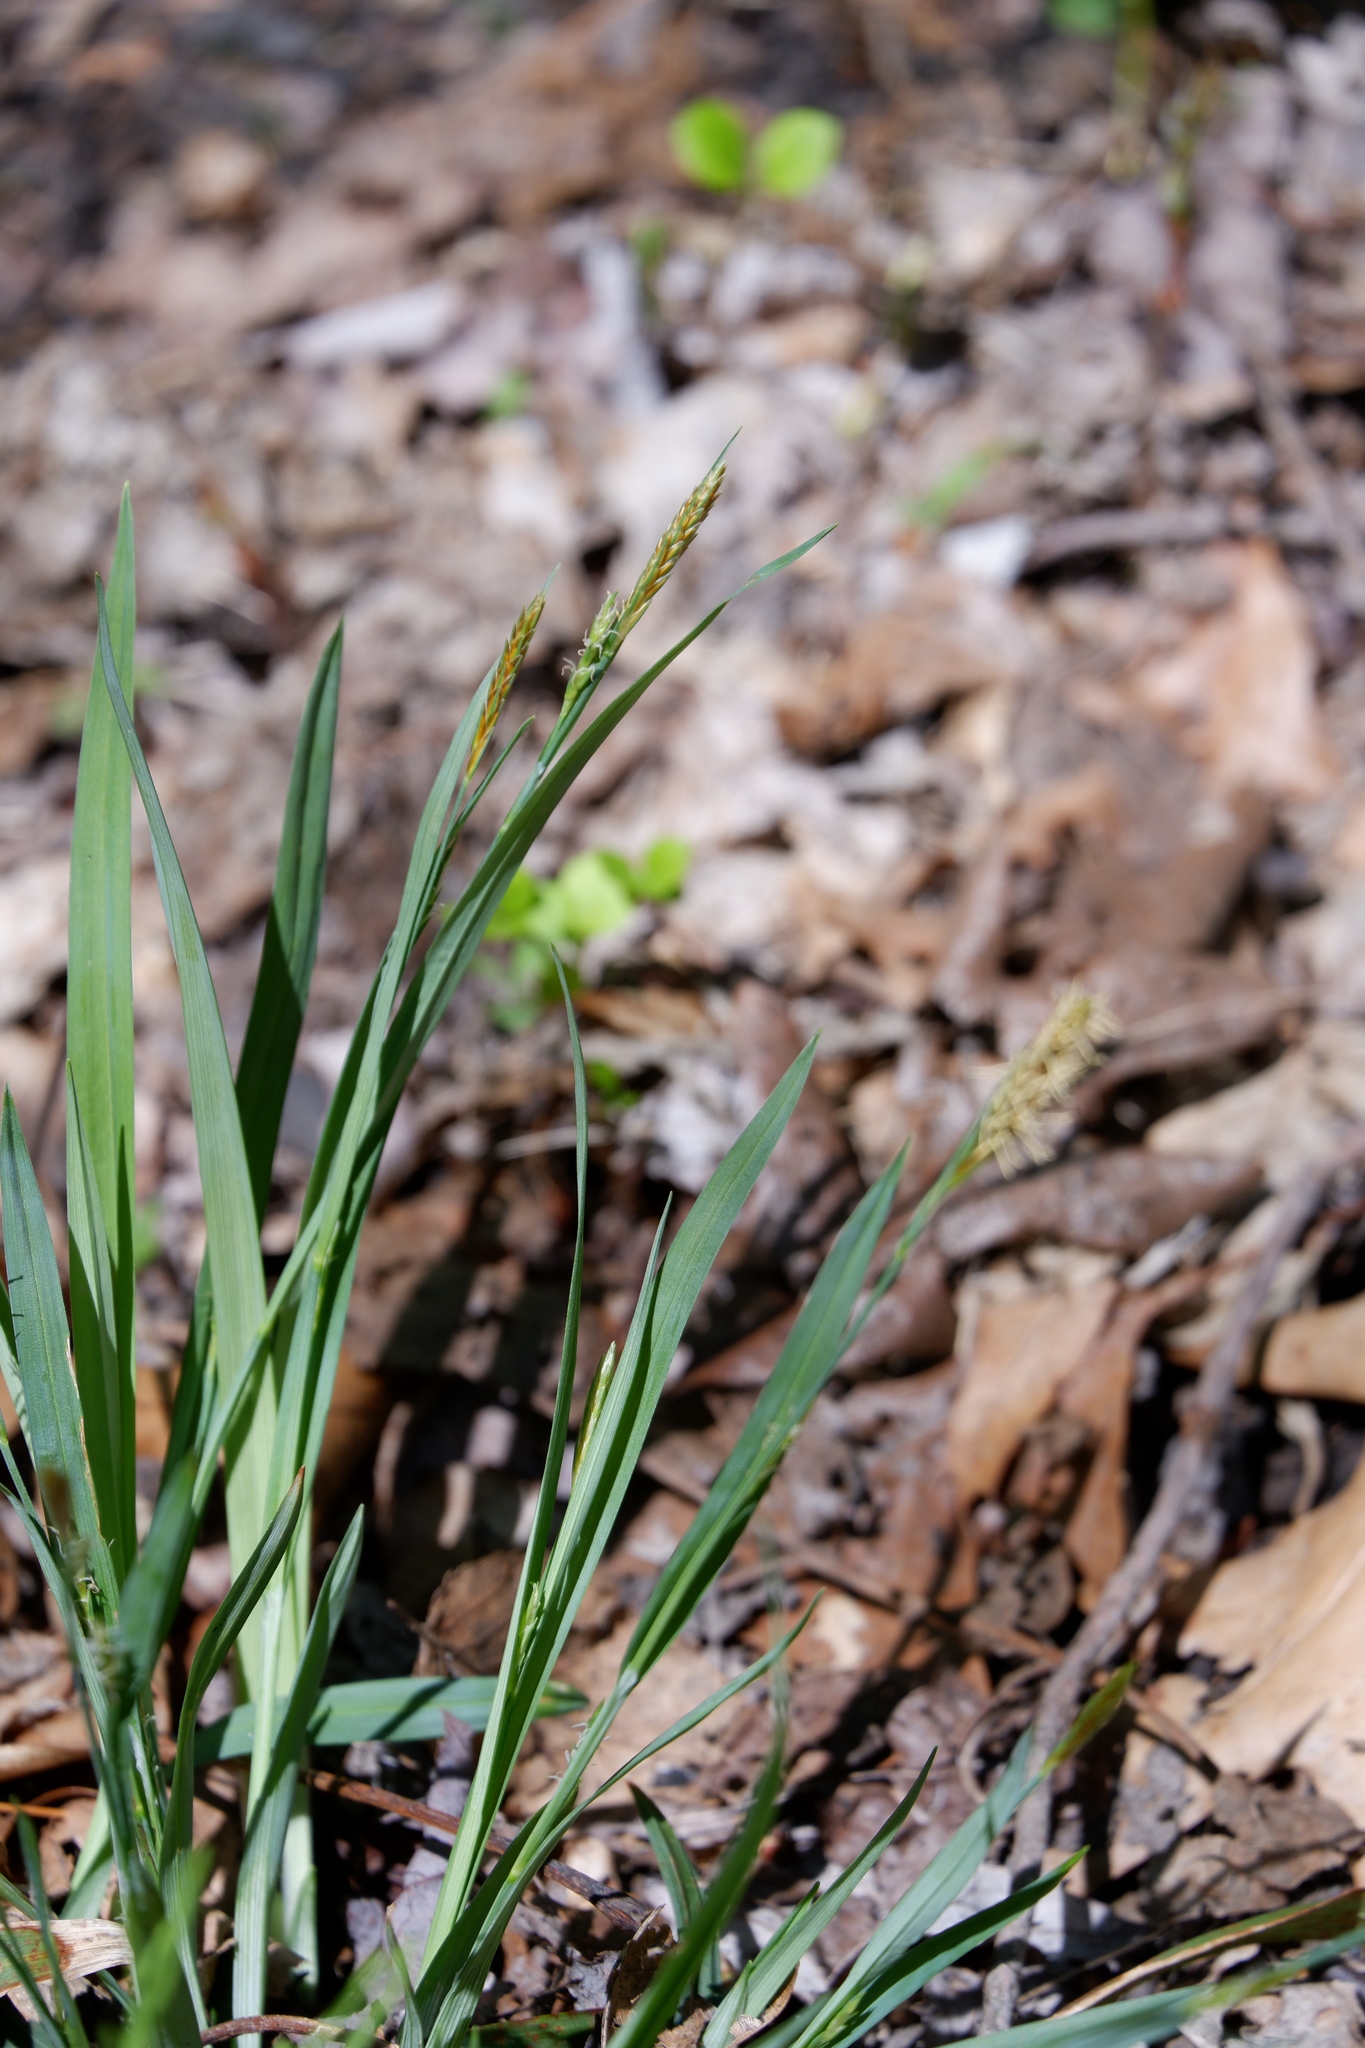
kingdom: Plantae
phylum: Tracheophyta
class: Liliopsida
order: Poales
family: Cyperaceae
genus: Carex
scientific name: Carex glaucodea
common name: Blue sedge
